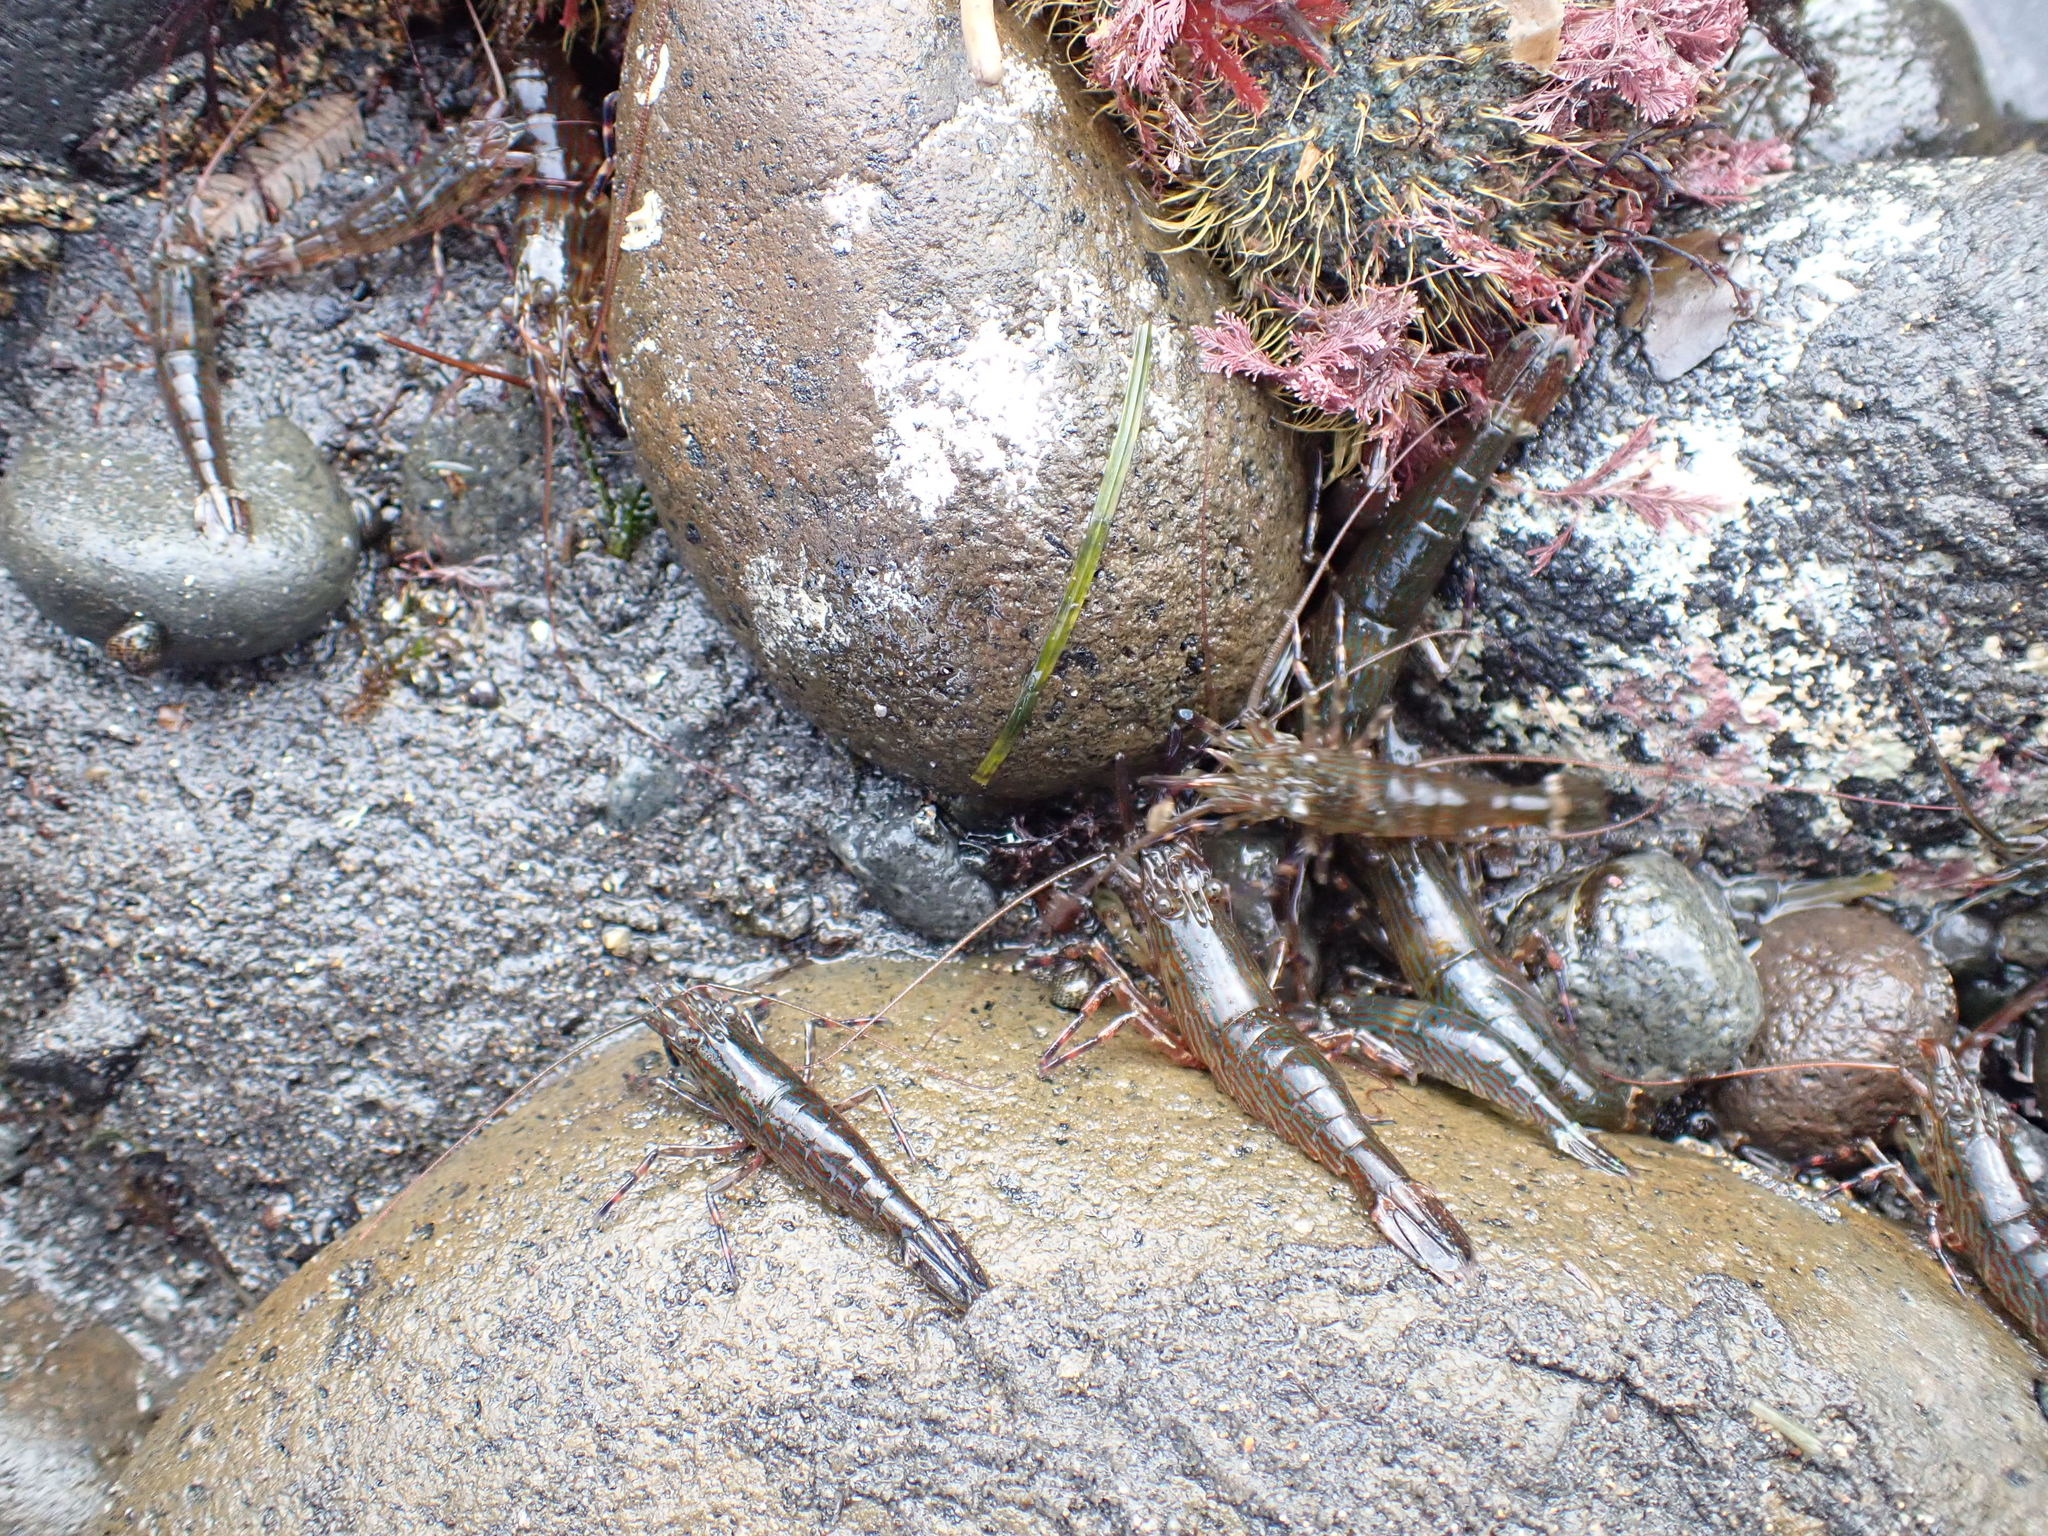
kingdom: Animalia
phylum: Arthropoda
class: Malacostraca
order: Decapoda
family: Hippolytidae
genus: Alope
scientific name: Alope spinifrons
